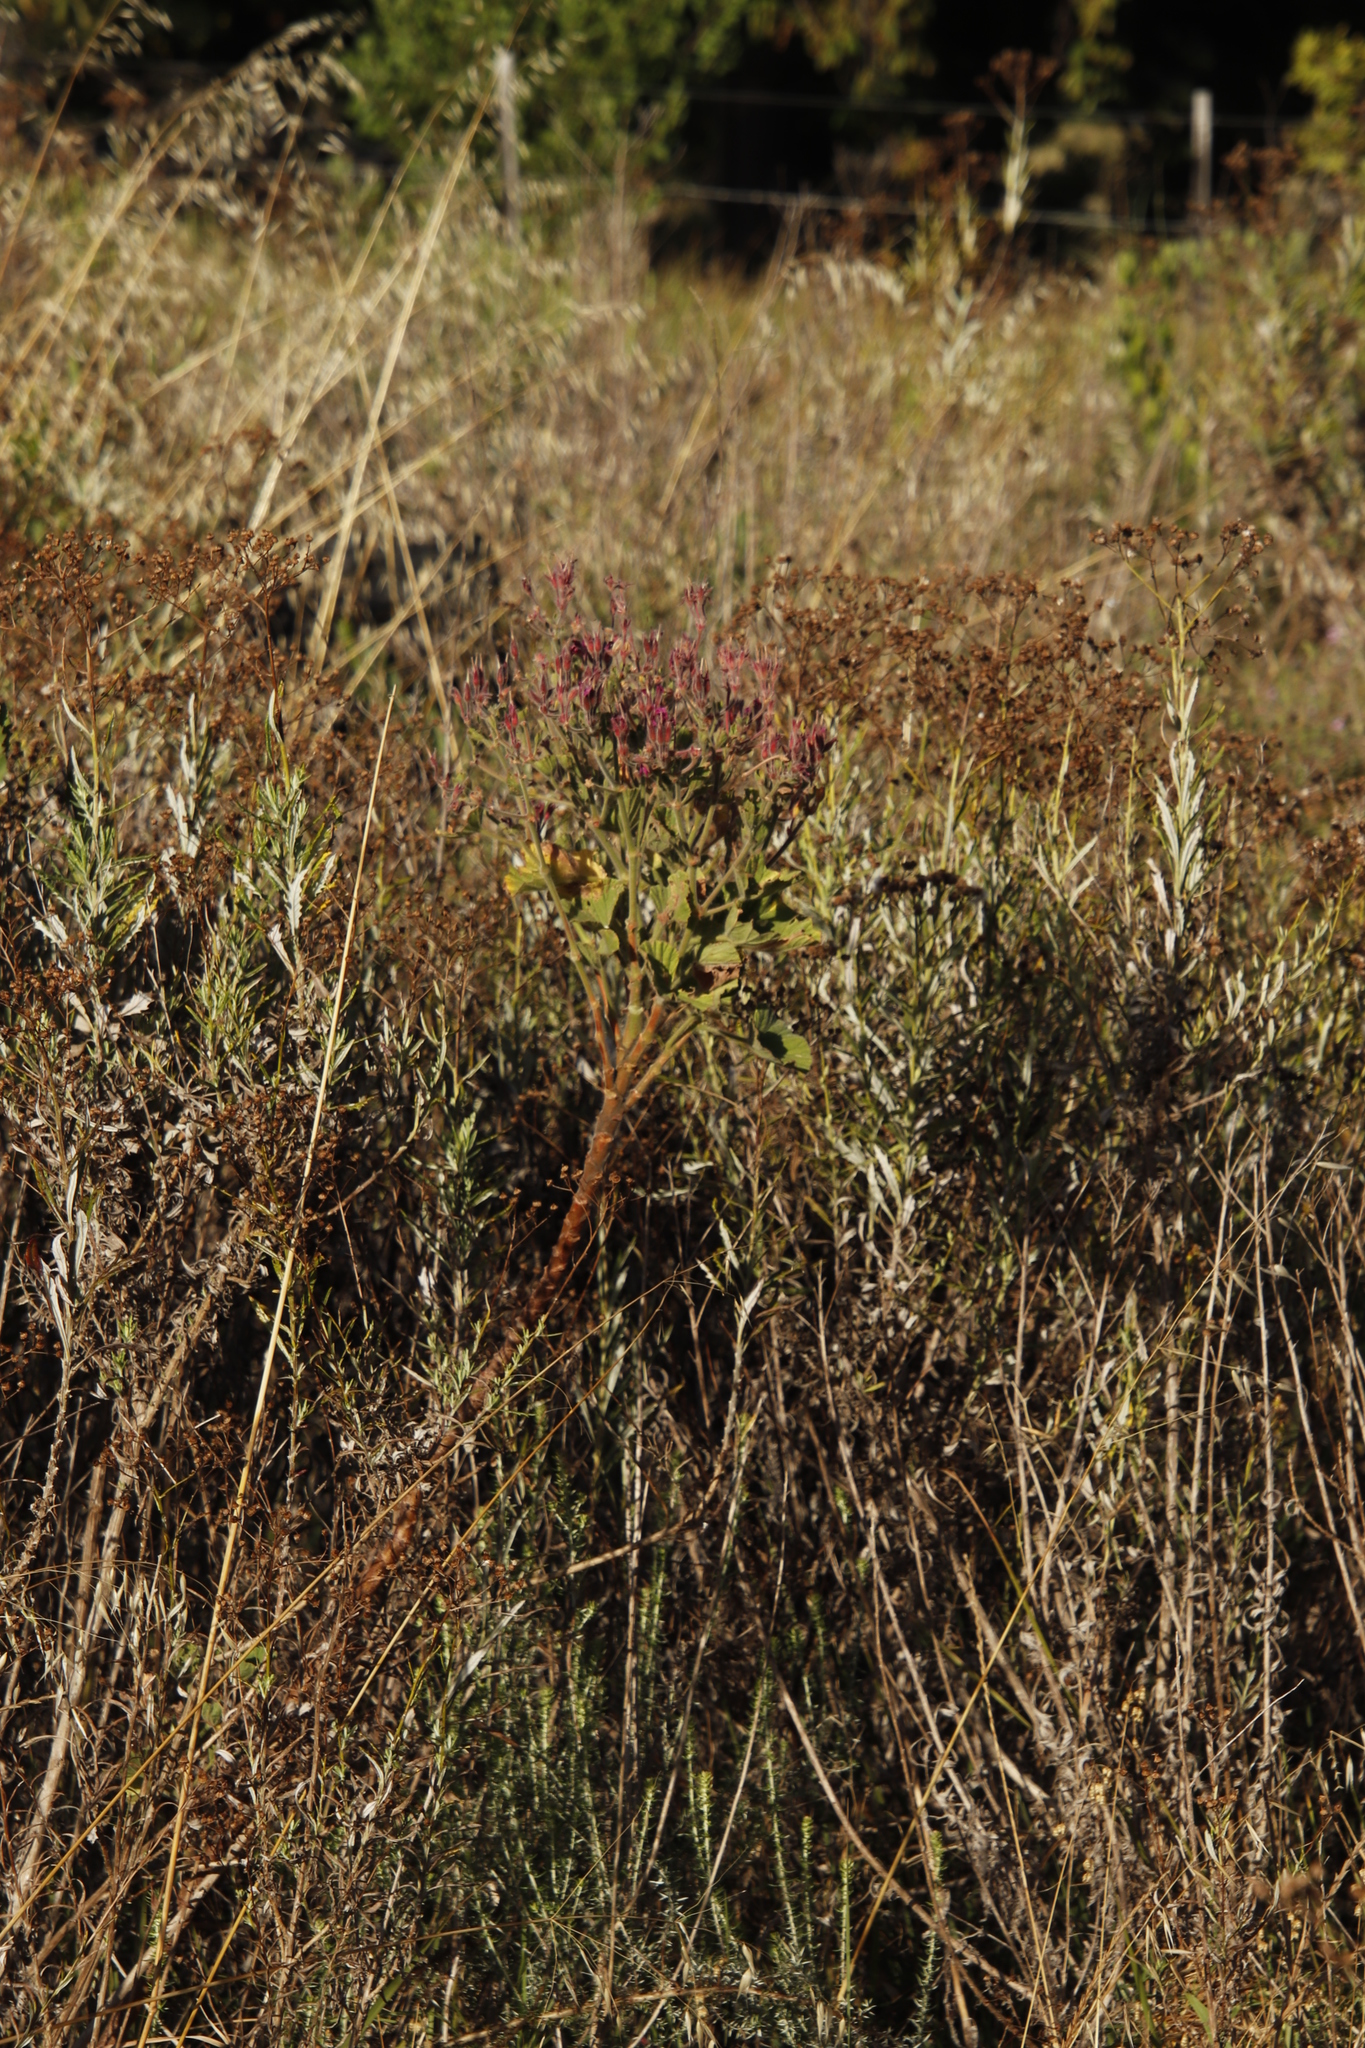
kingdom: Plantae
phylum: Tracheophyta
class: Magnoliopsida
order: Geraniales
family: Geraniaceae
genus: Pelargonium
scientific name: Pelargonium cucullatum
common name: Tree pelargonium
